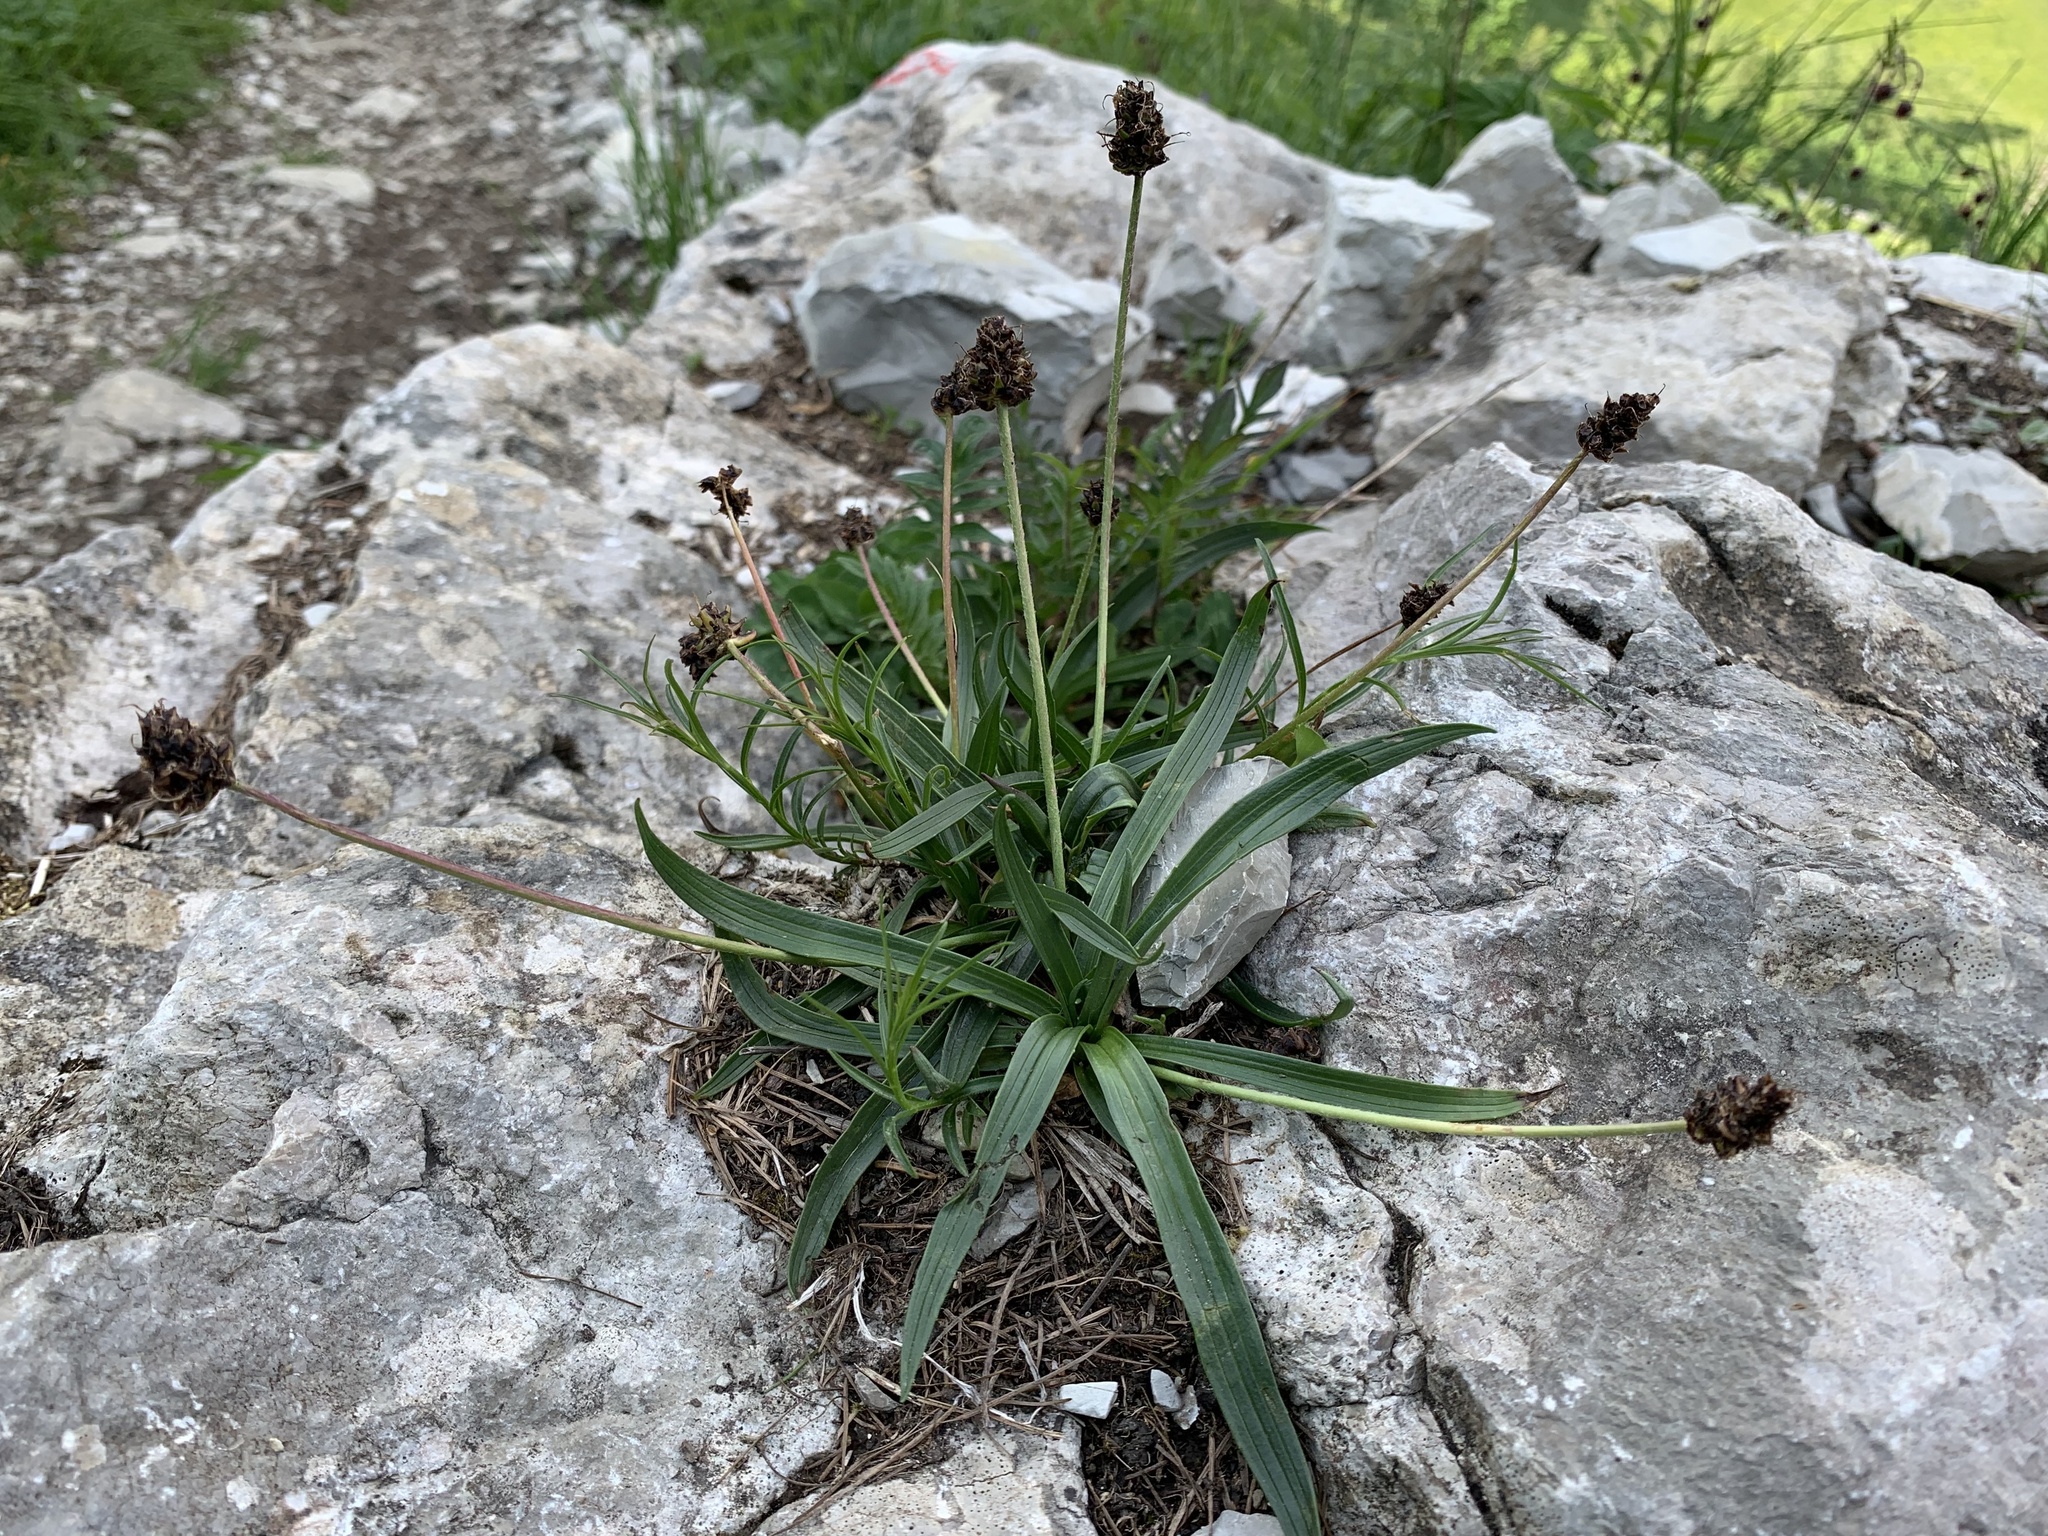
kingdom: Plantae
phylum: Tracheophyta
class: Magnoliopsida
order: Lamiales
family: Plantaginaceae
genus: Plantago
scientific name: Plantago atrata
